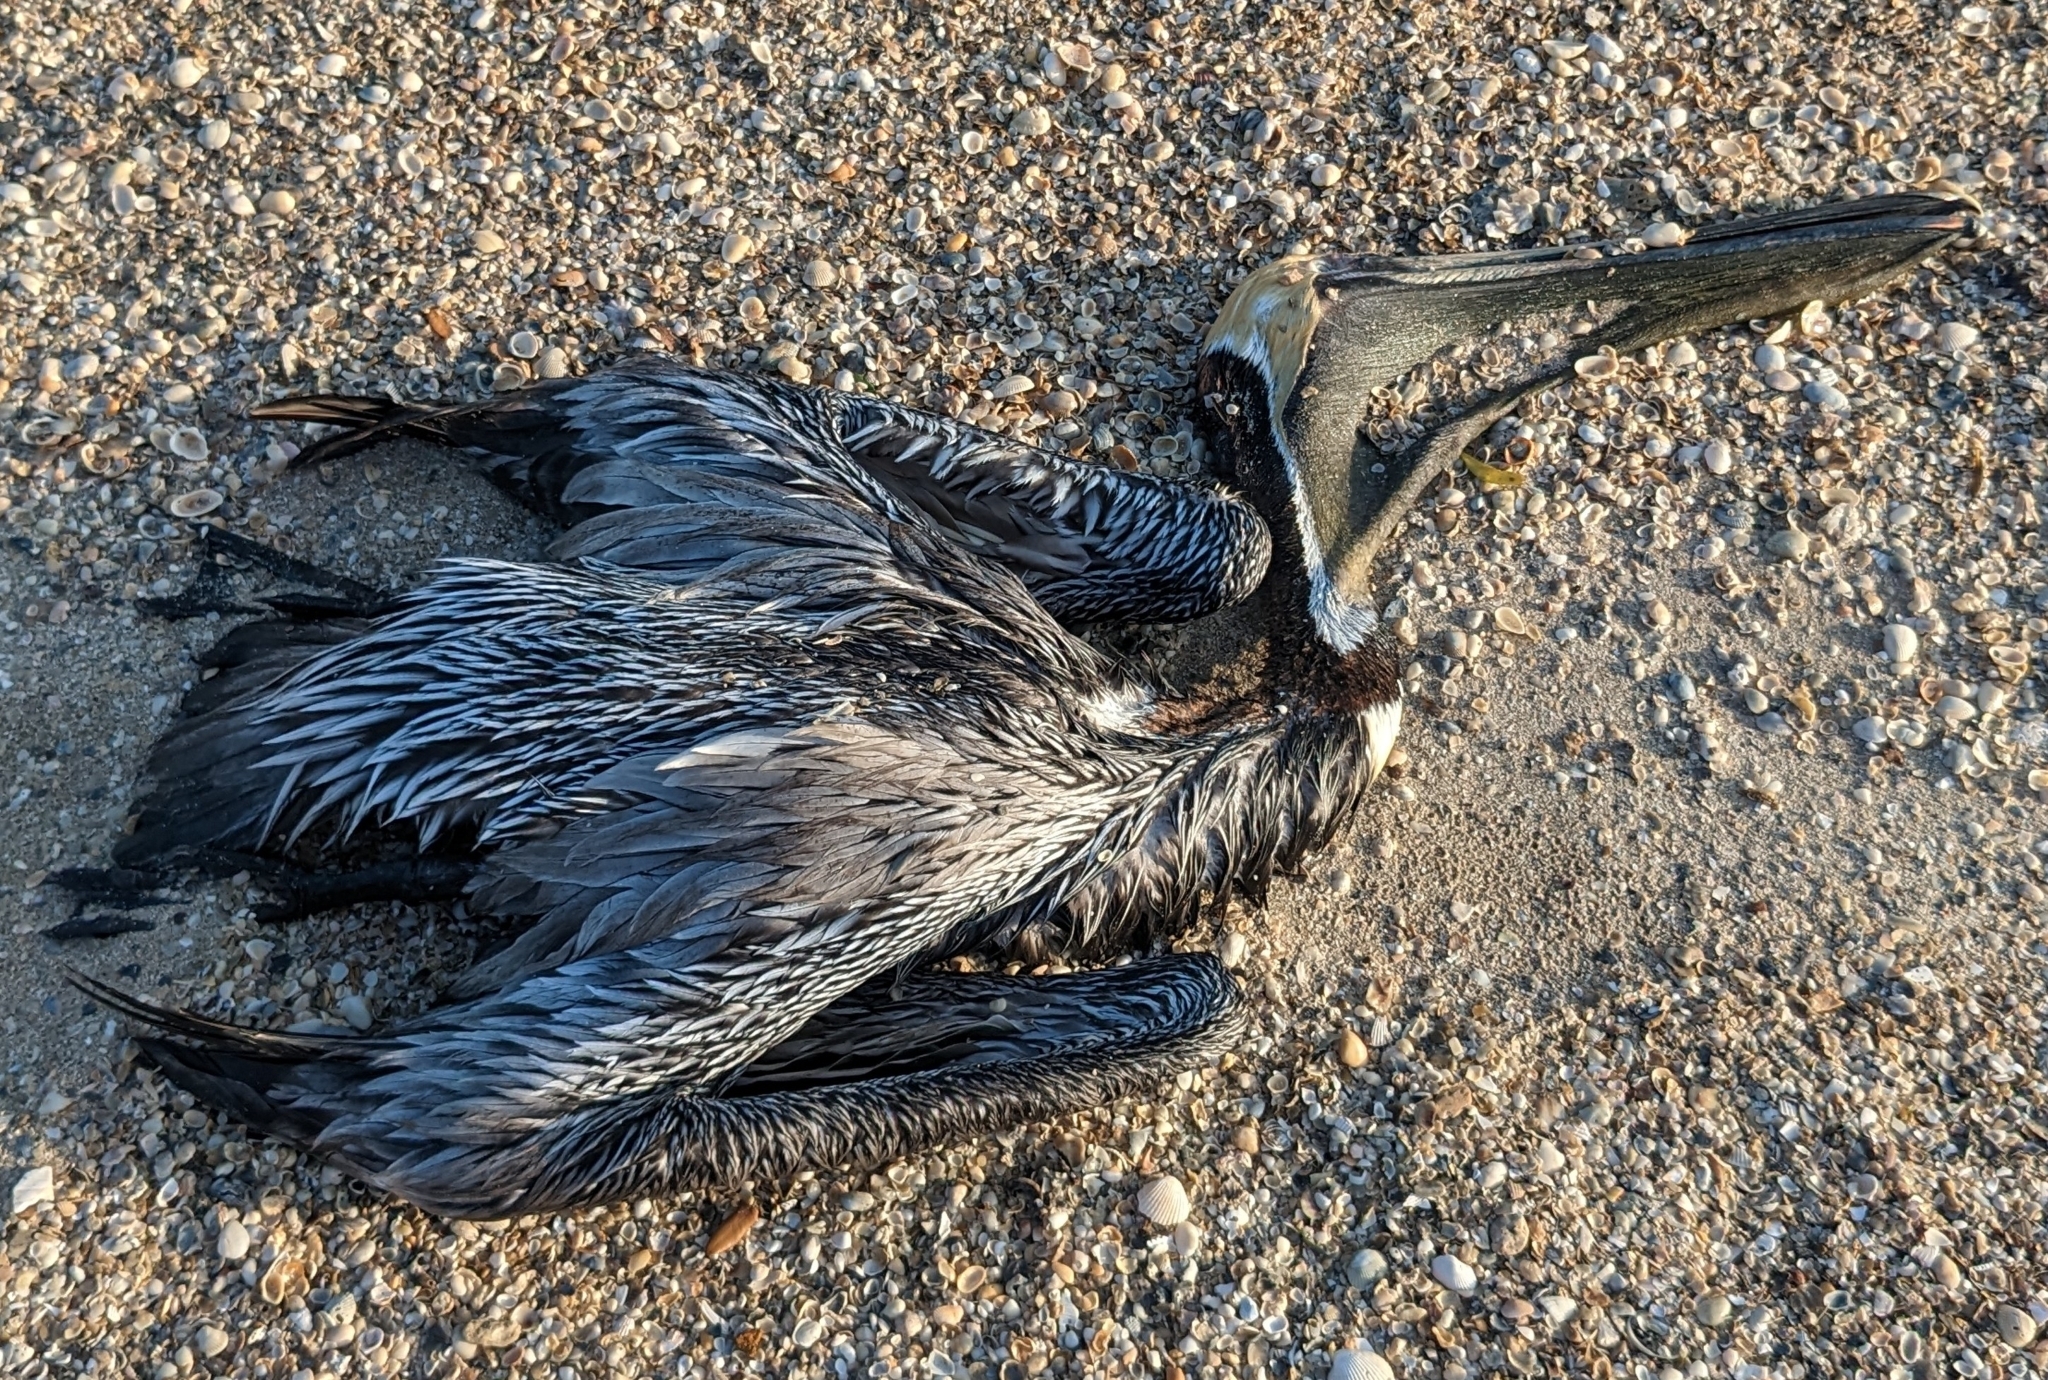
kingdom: Animalia
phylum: Chordata
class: Aves
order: Pelecaniformes
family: Pelecanidae
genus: Pelecanus
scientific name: Pelecanus occidentalis
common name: Brown pelican
